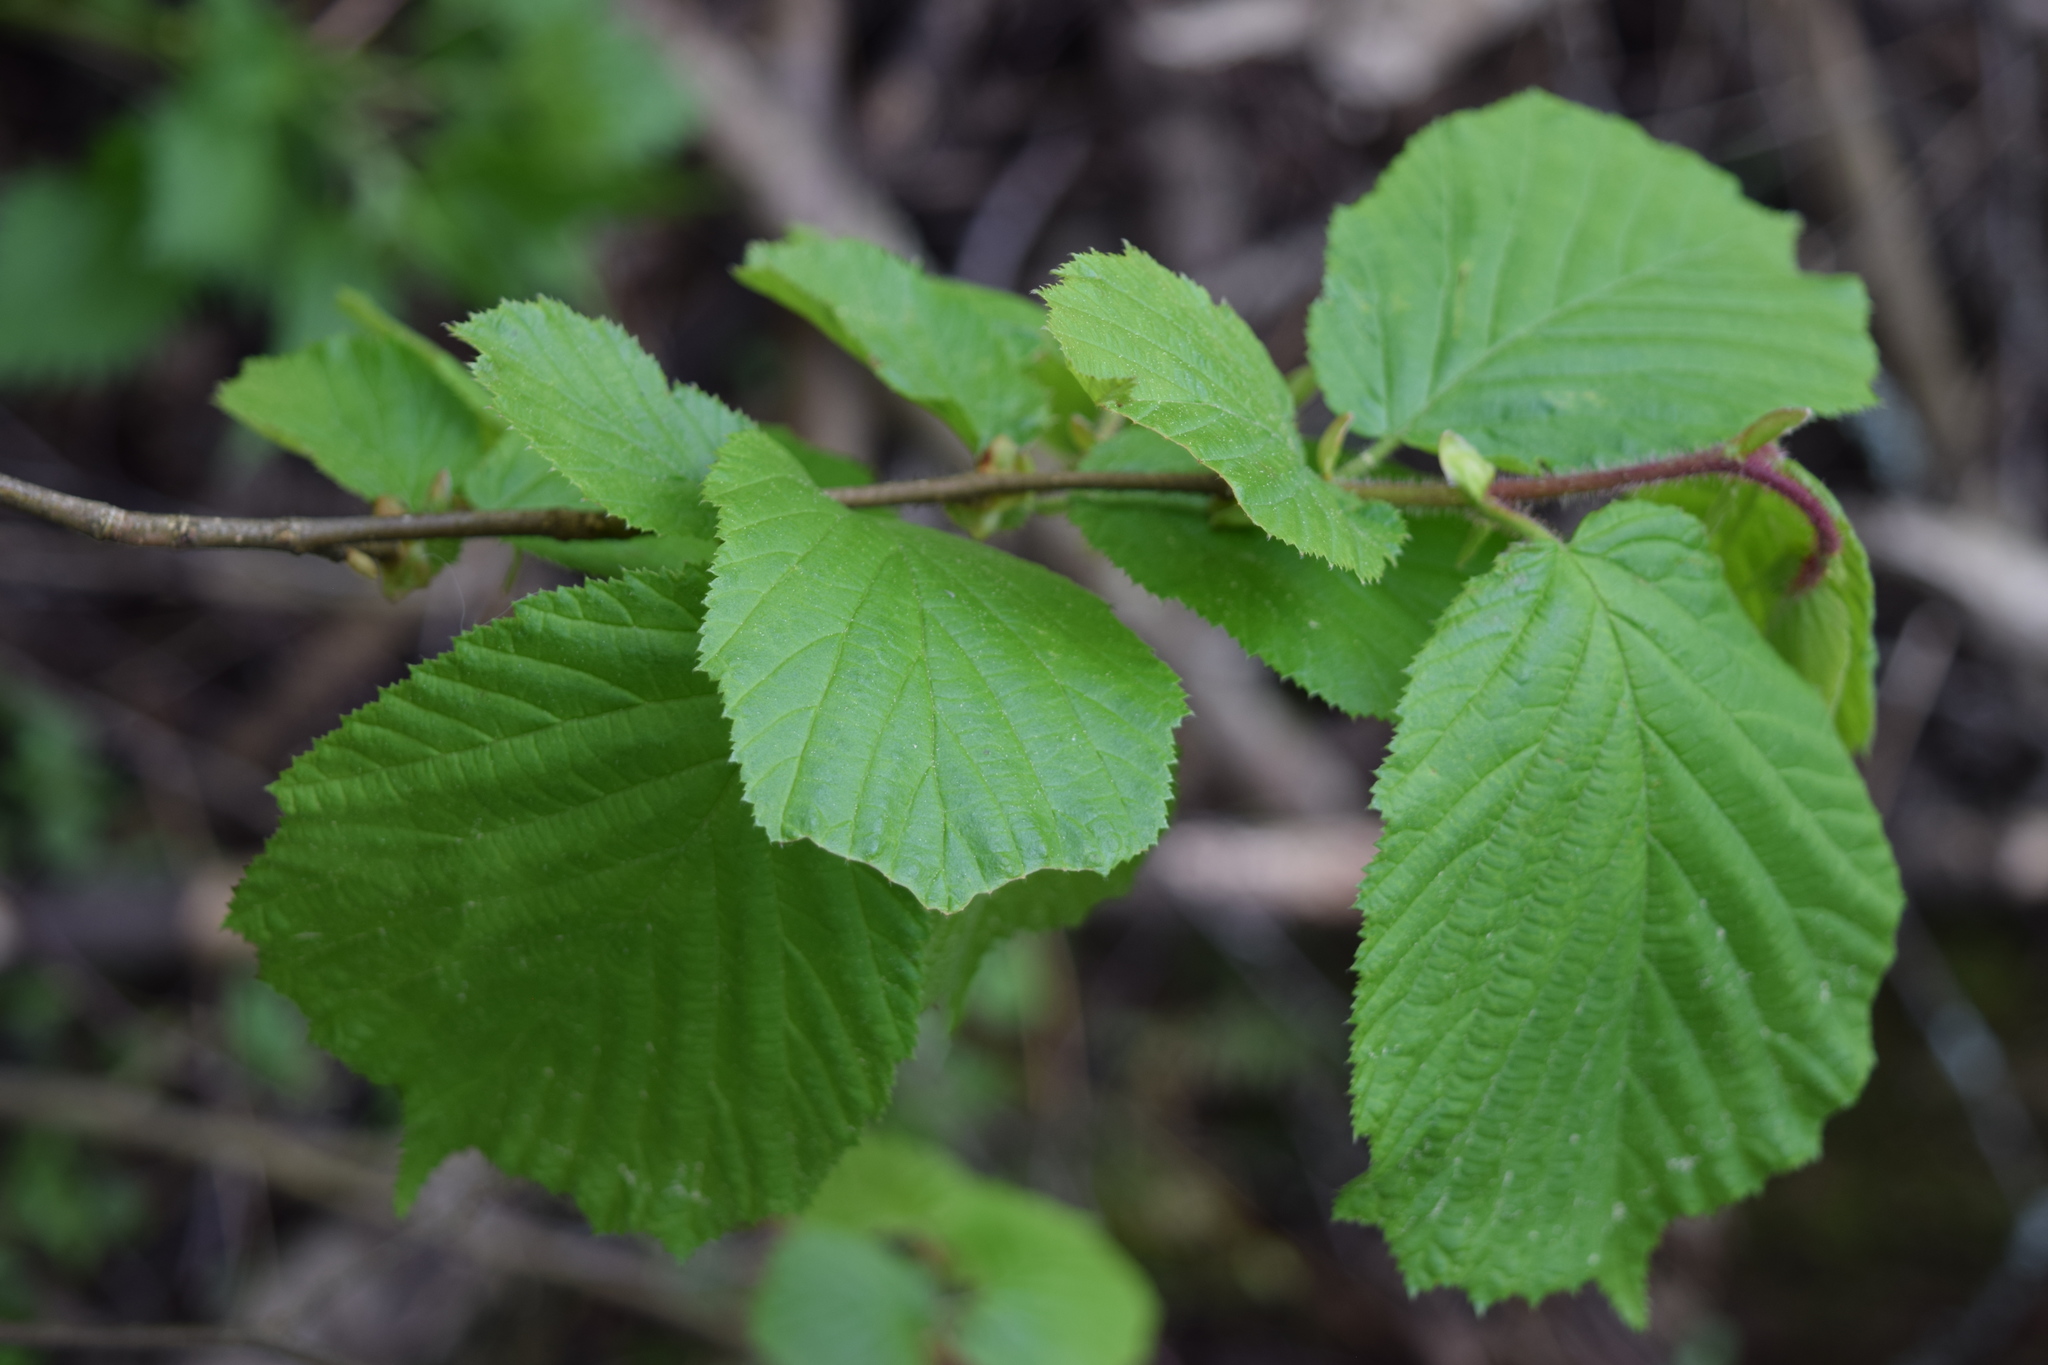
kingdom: Plantae
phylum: Tracheophyta
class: Magnoliopsida
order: Fagales
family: Betulaceae
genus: Corylus
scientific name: Corylus avellana
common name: European hazel
